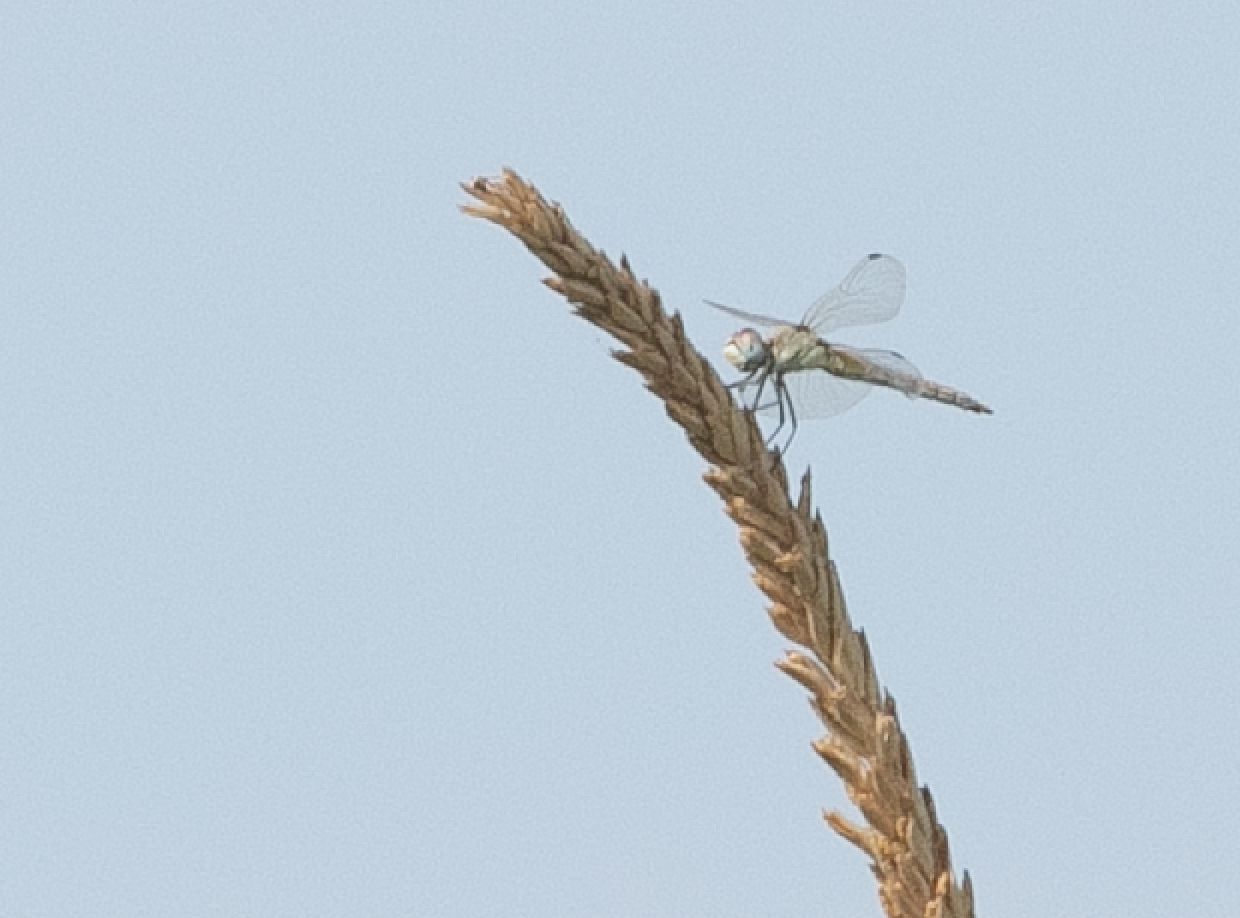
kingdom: Animalia
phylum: Arthropoda
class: Insecta
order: Odonata
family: Libellulidae
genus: Sympetrum
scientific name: Sympetrum fonscolombii
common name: Red-veined darter
